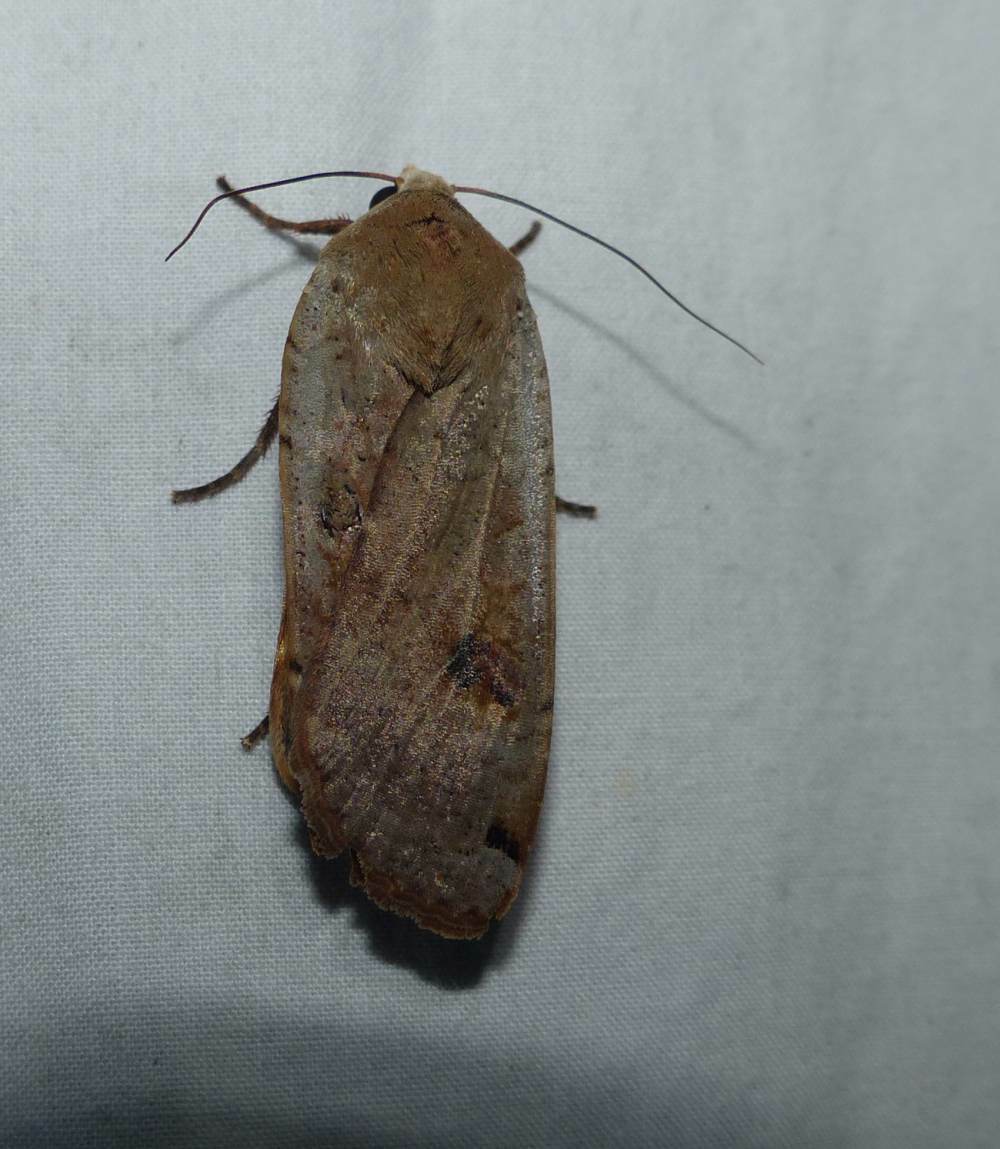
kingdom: Animalia
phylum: Arthropoda
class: Insecta
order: Lepidoptera
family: Noctuidae
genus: Noctua
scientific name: Noctua pronuba
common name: Large yellow underwing
